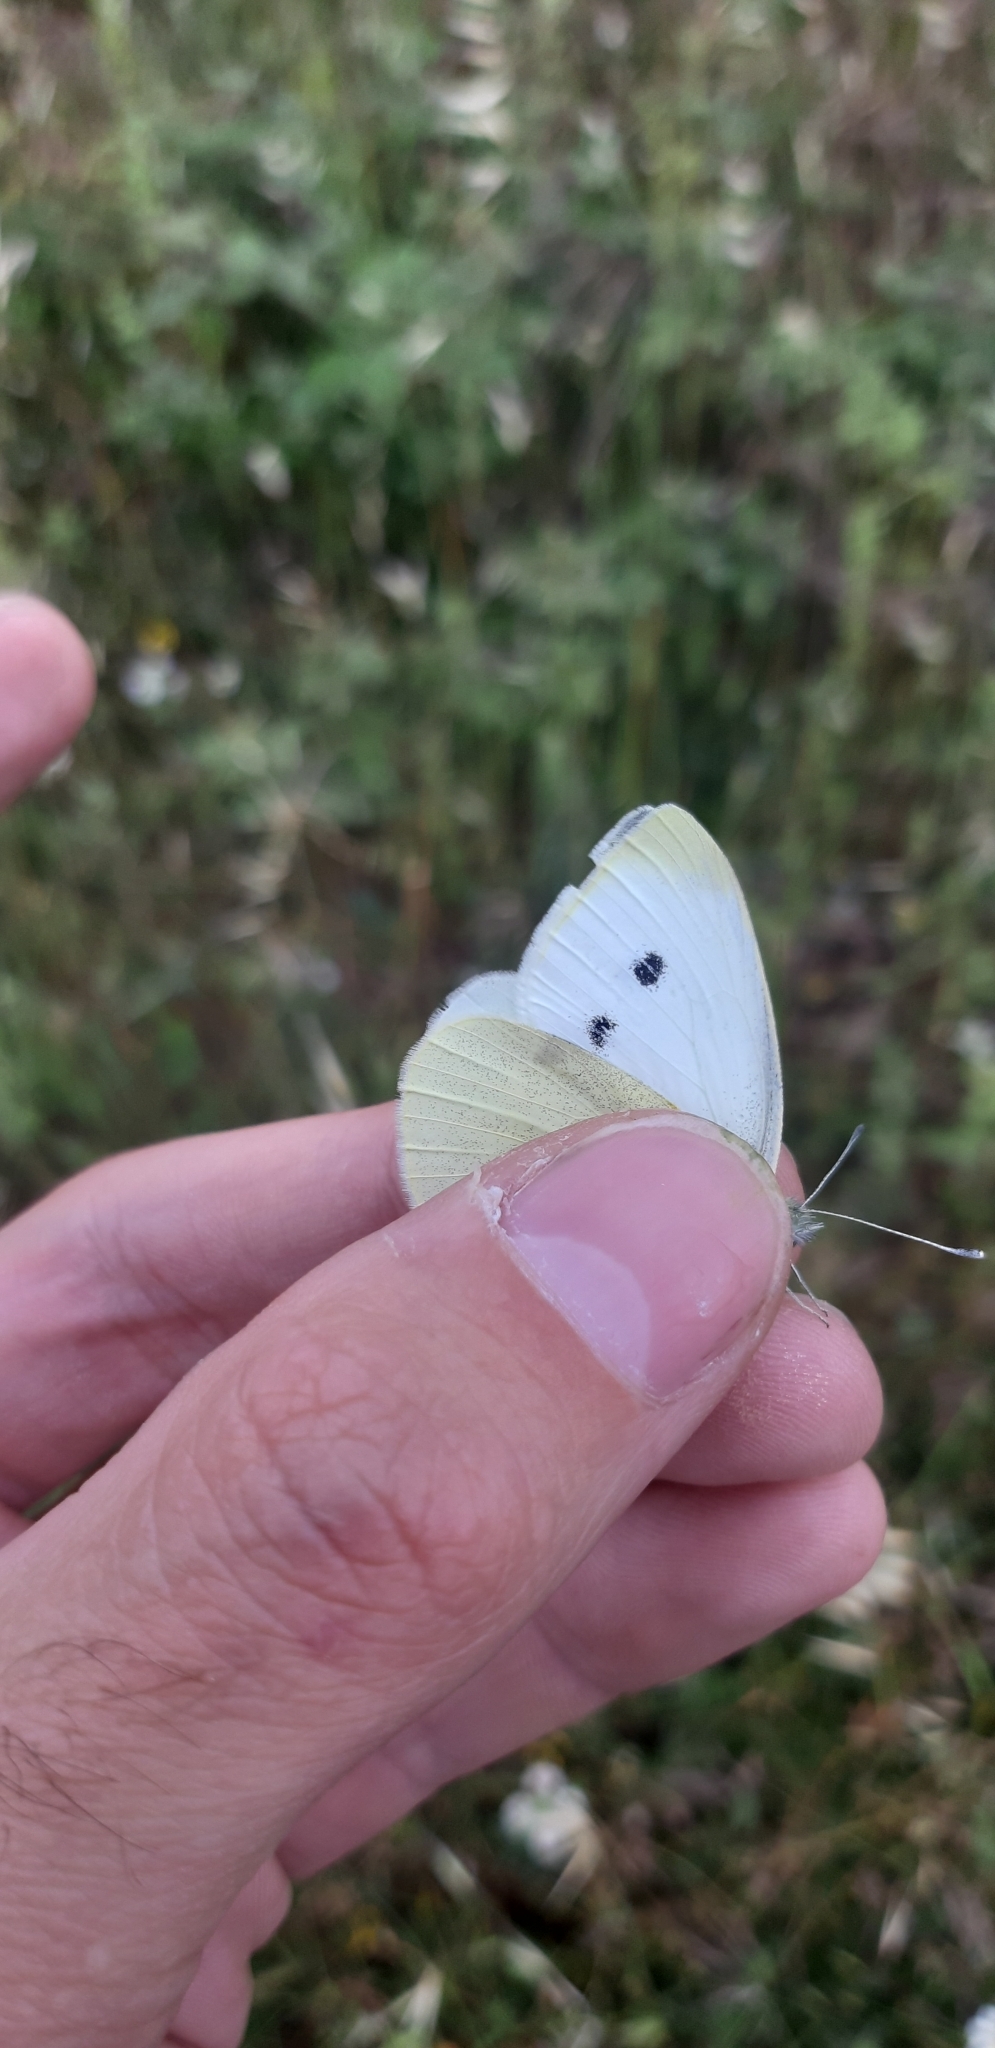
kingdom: Animalia
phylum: Arthropoda
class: Insecta
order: Lepidoptera
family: Pieridae
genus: Pieris
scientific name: Pieris rapae
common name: Small white
